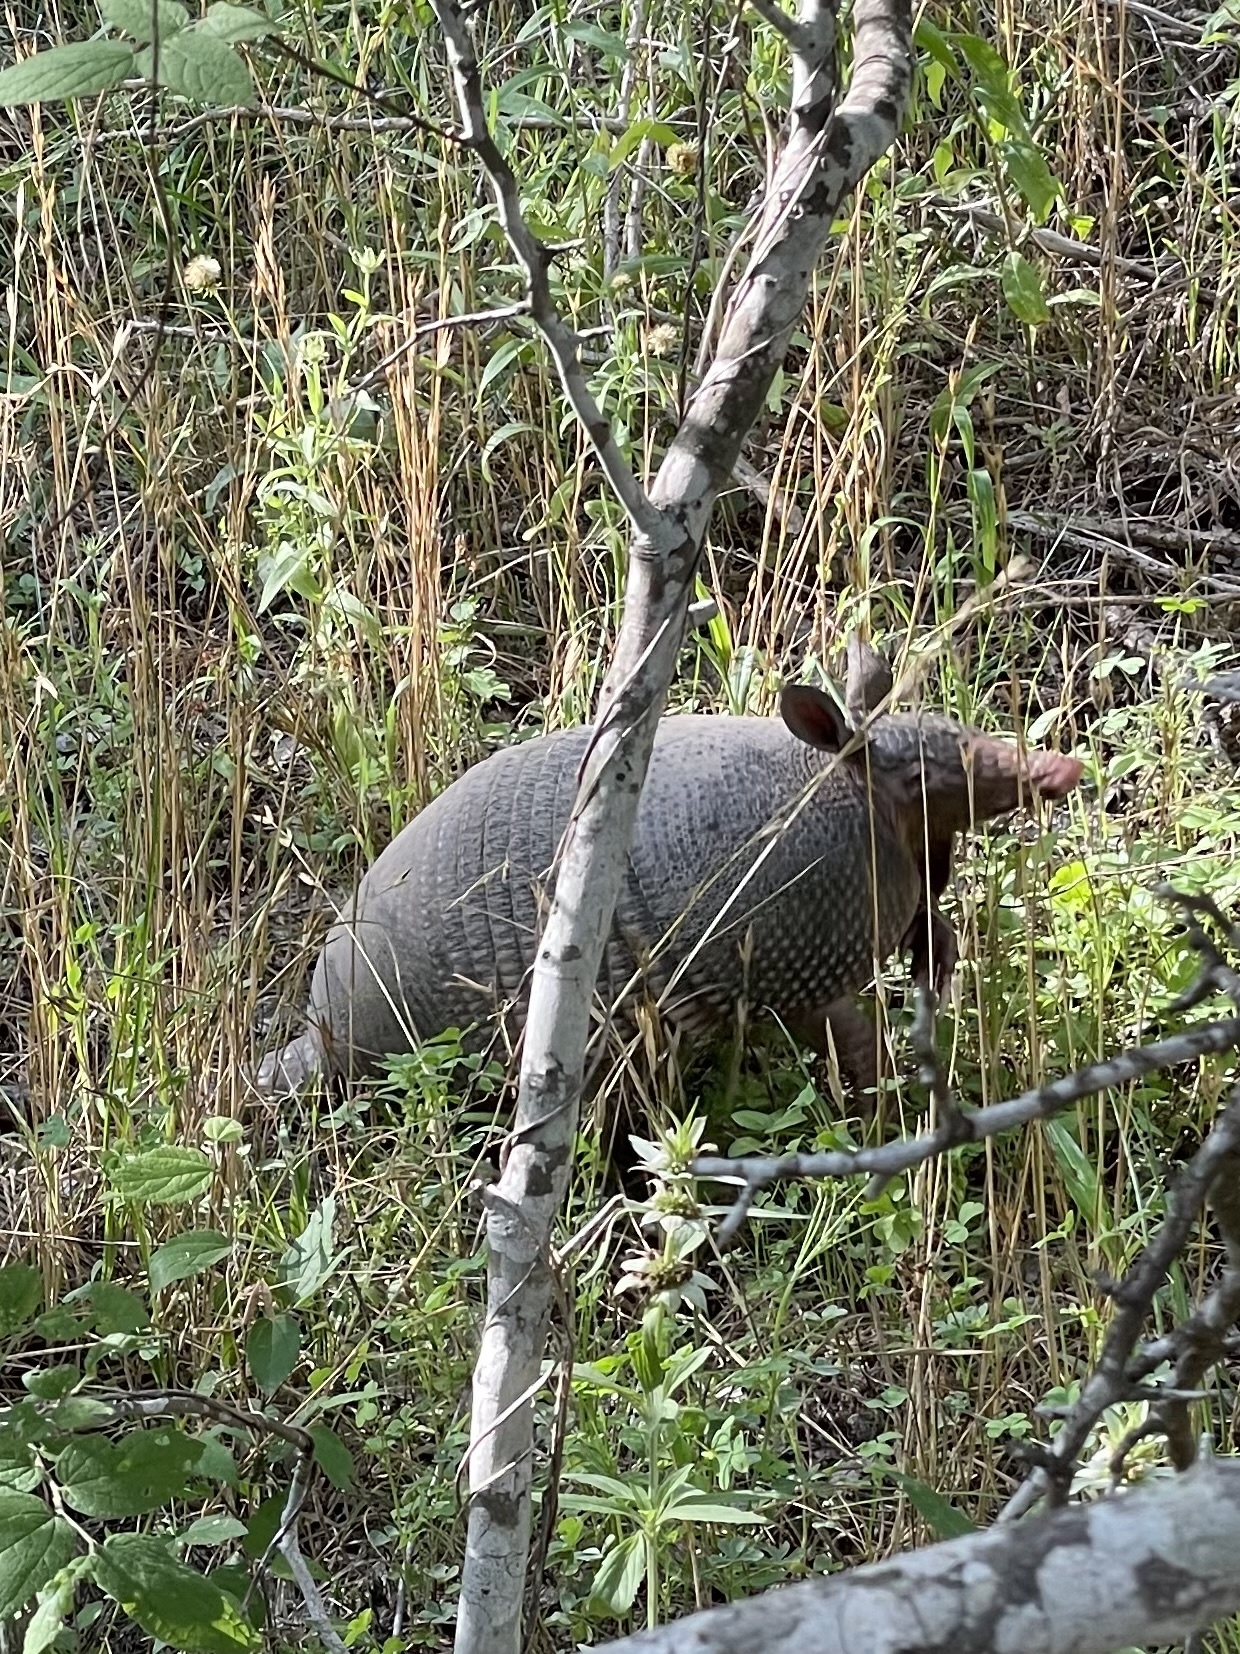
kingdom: Animalia
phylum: Chordata
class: Mammalia
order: Cingulata
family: Dasypodidae
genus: Dasypus
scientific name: Dasypus novemcinctus
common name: Nine-banded armadillo
